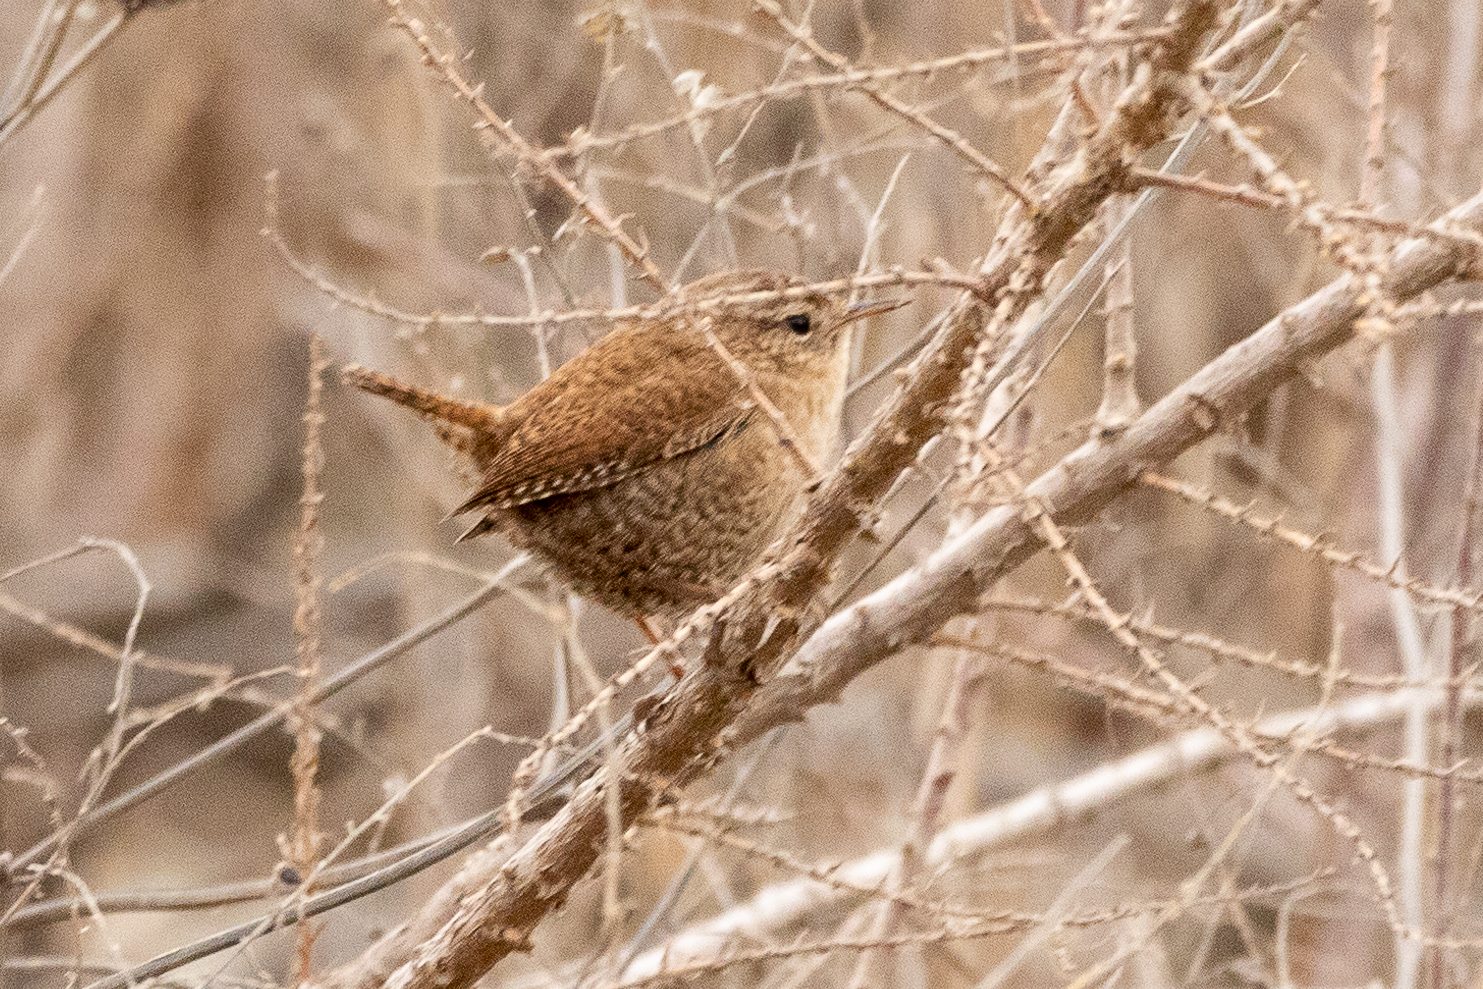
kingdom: Animalia
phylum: Chordata
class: Aves
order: Passeriformes
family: Troglodytidae
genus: Troglodytes
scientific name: Troglodytes troglodytes
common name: Eurasian wren
